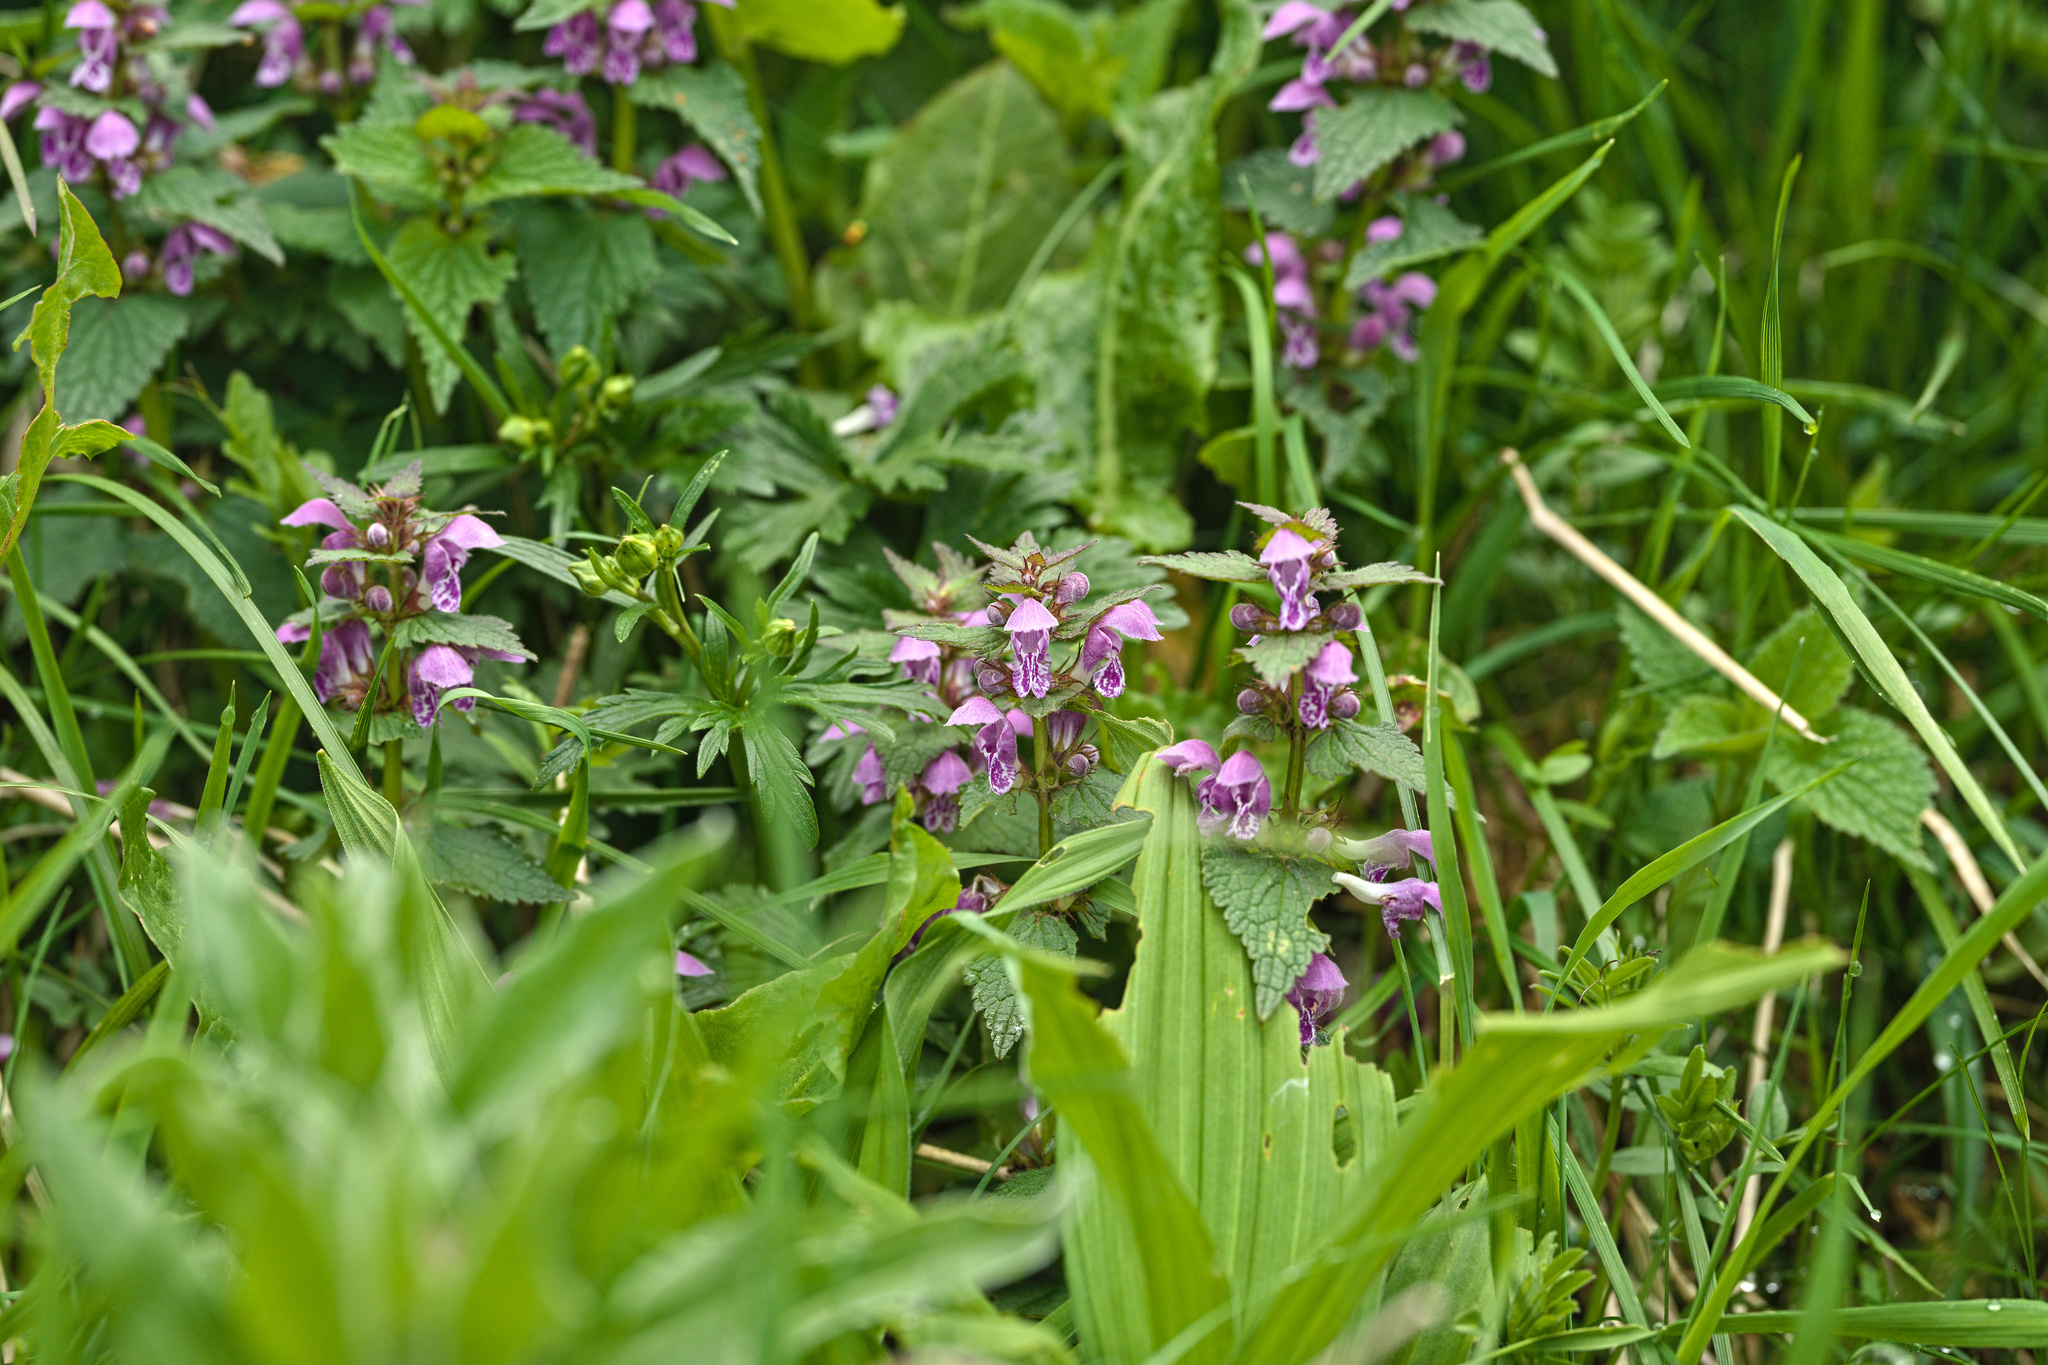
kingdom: Plantae
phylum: Tracheophyta
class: Magnoliopsida
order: Lamiales
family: Lamiaceae
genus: Lamium
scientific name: Lamium maculatum
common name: Spotted dead-nettle
